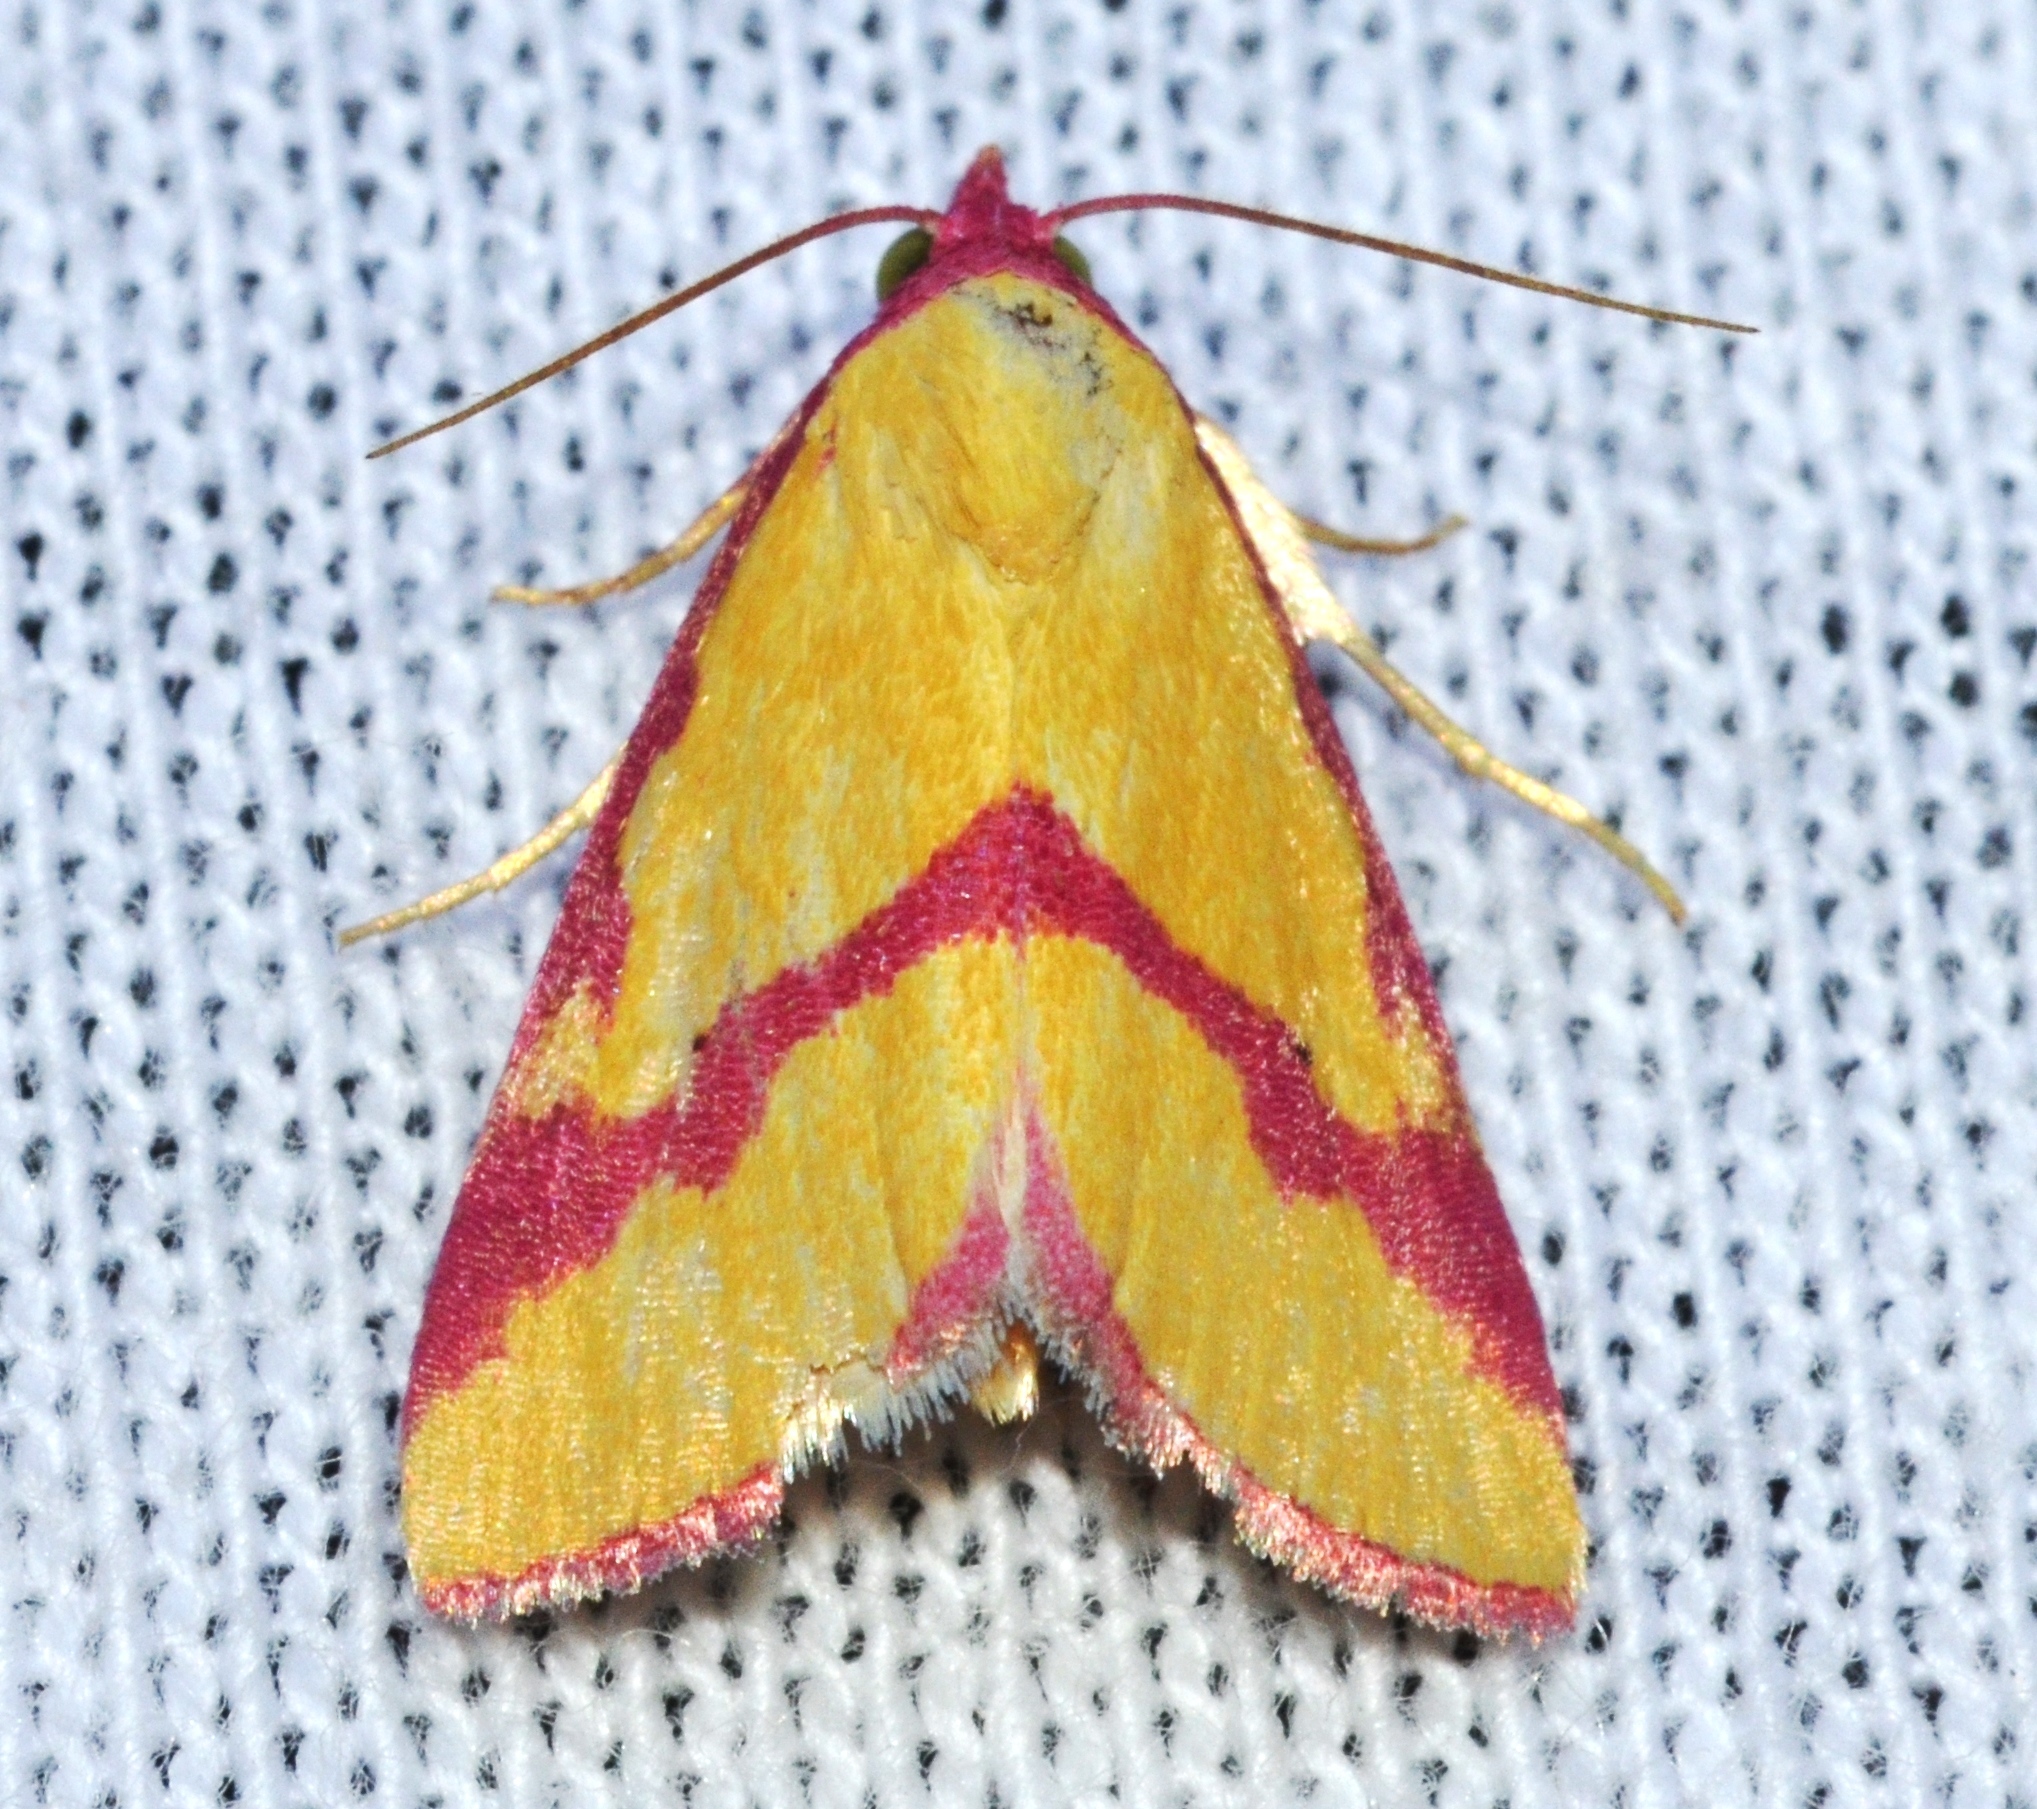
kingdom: Animalia
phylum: Arthropoda
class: Insecta
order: Lepidoptera
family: Erebidae
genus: Phytometra
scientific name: Phytometra ernestinana
